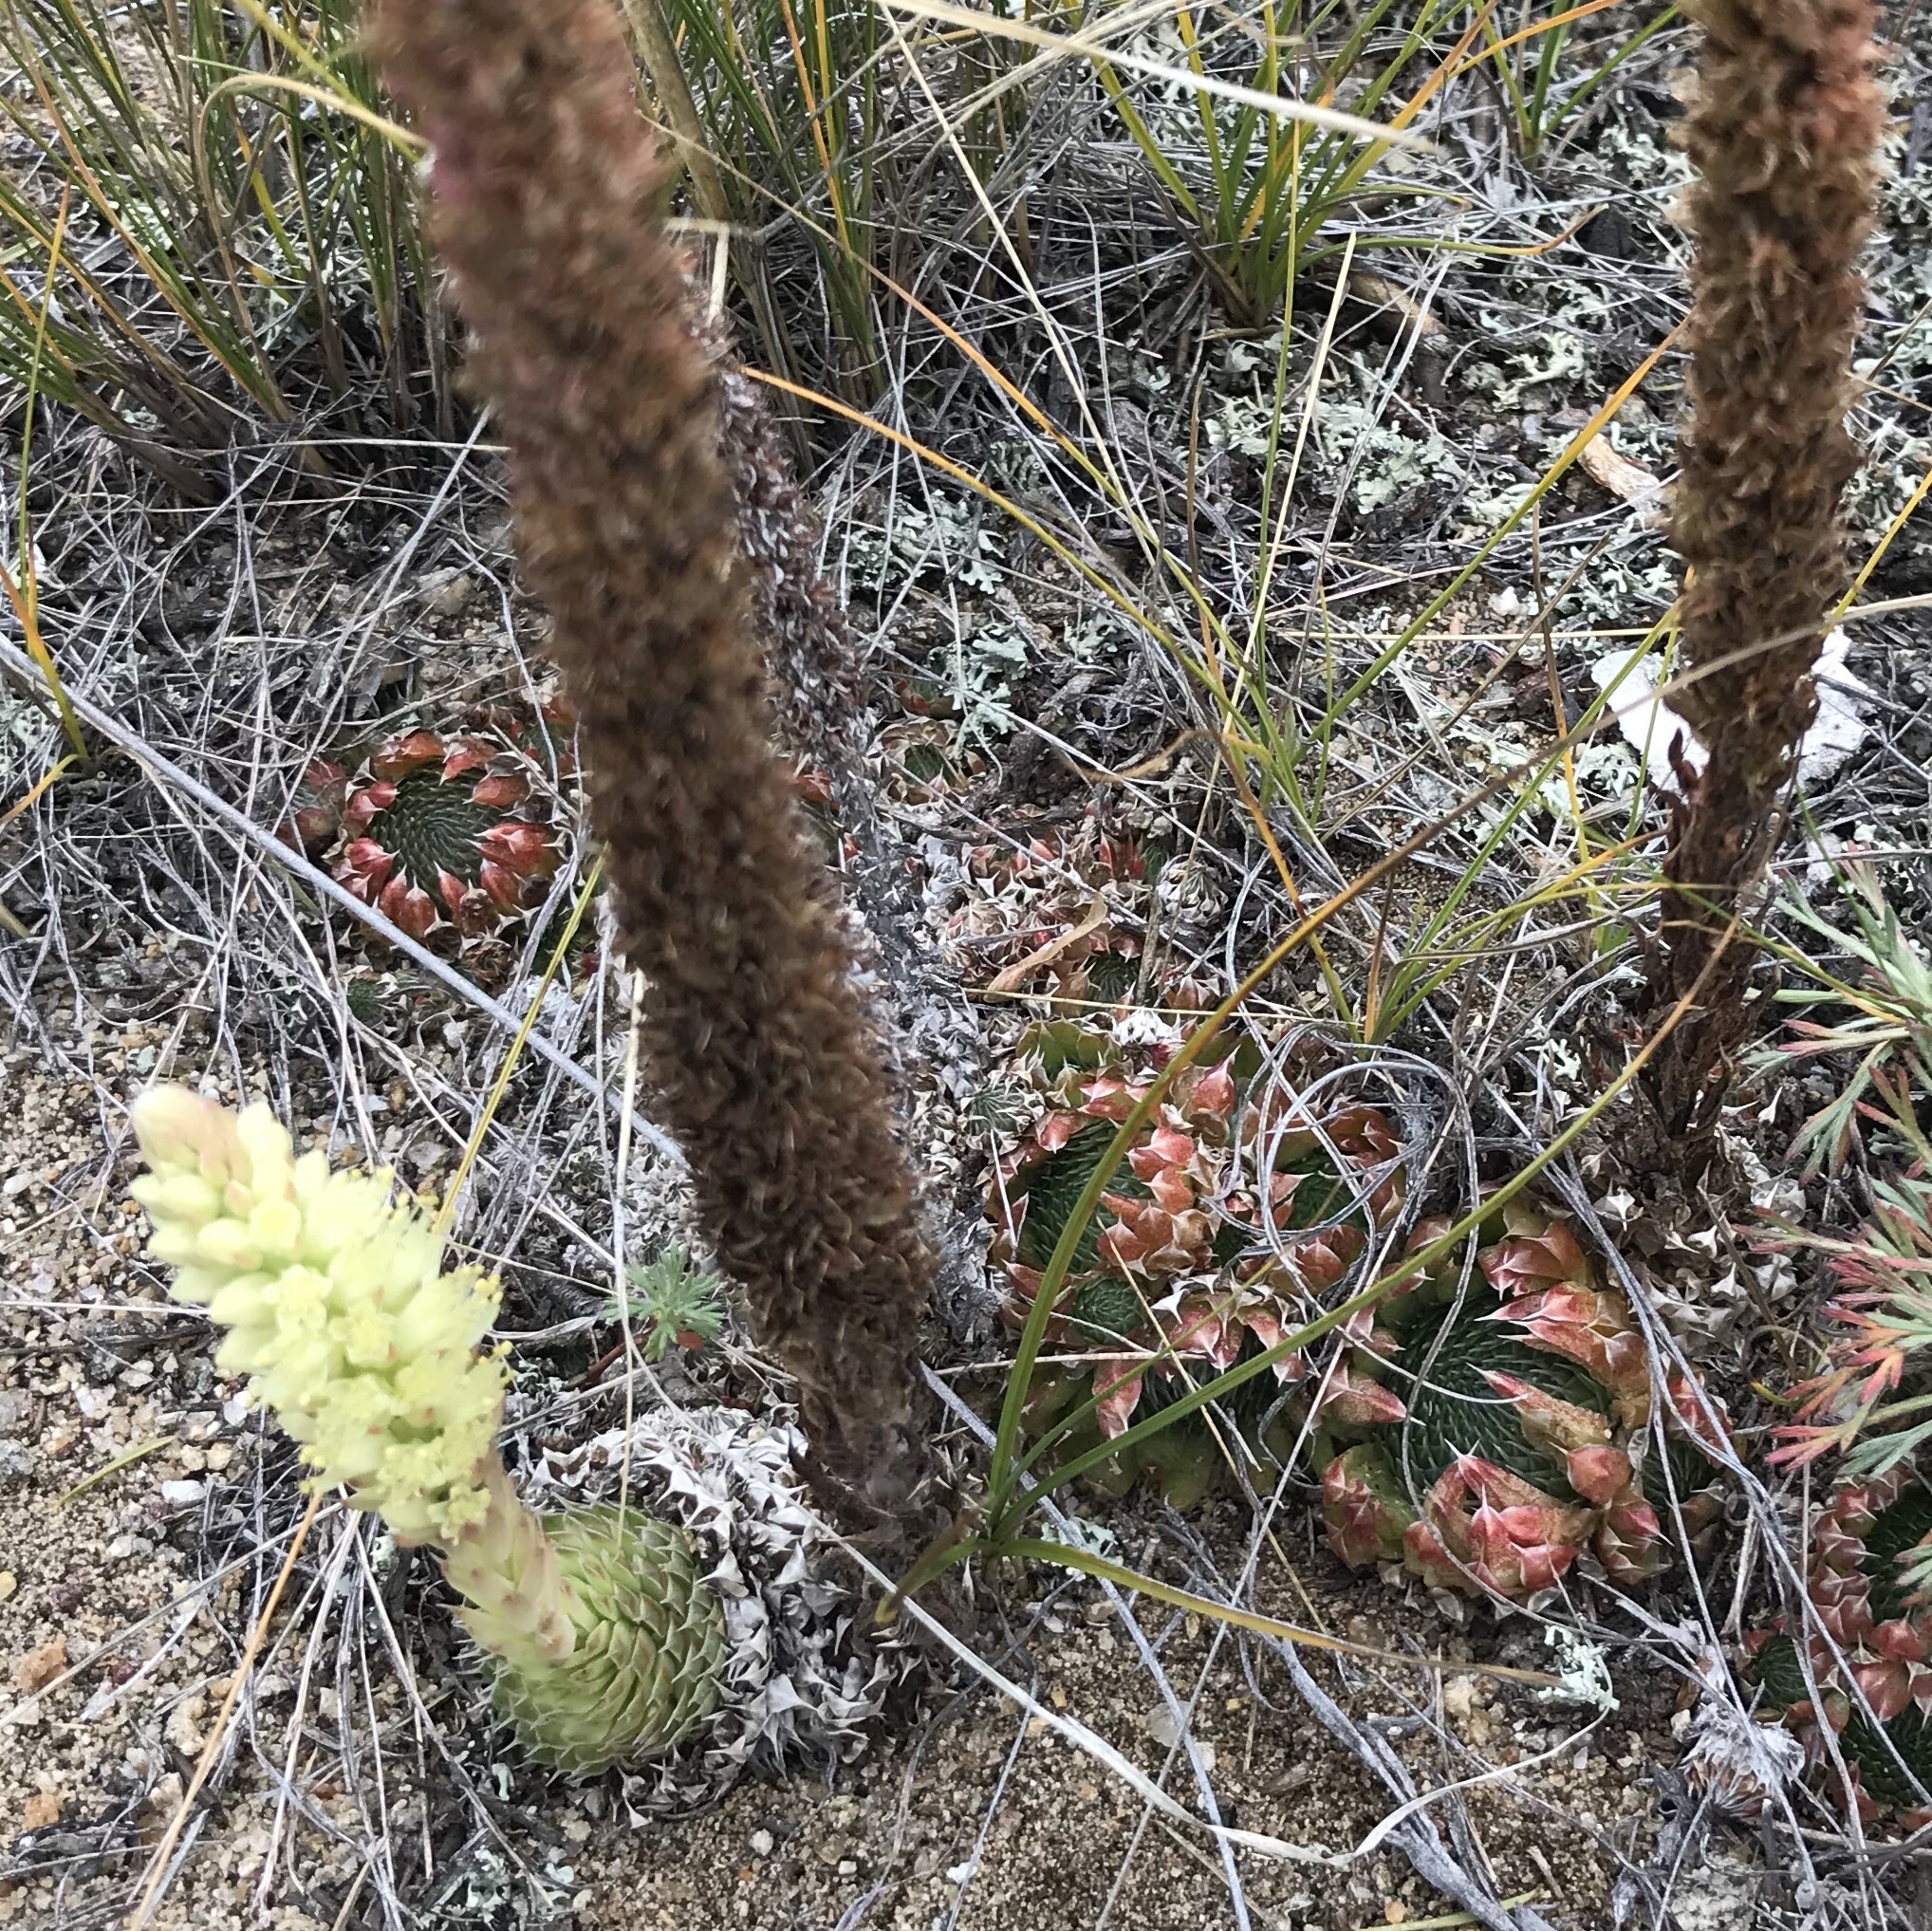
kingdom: Plantae
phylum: Tracheophyta
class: Magnoliopsida
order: Saxifragales
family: Crassulaceae
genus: Orostachys
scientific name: Orostachys spinosa
